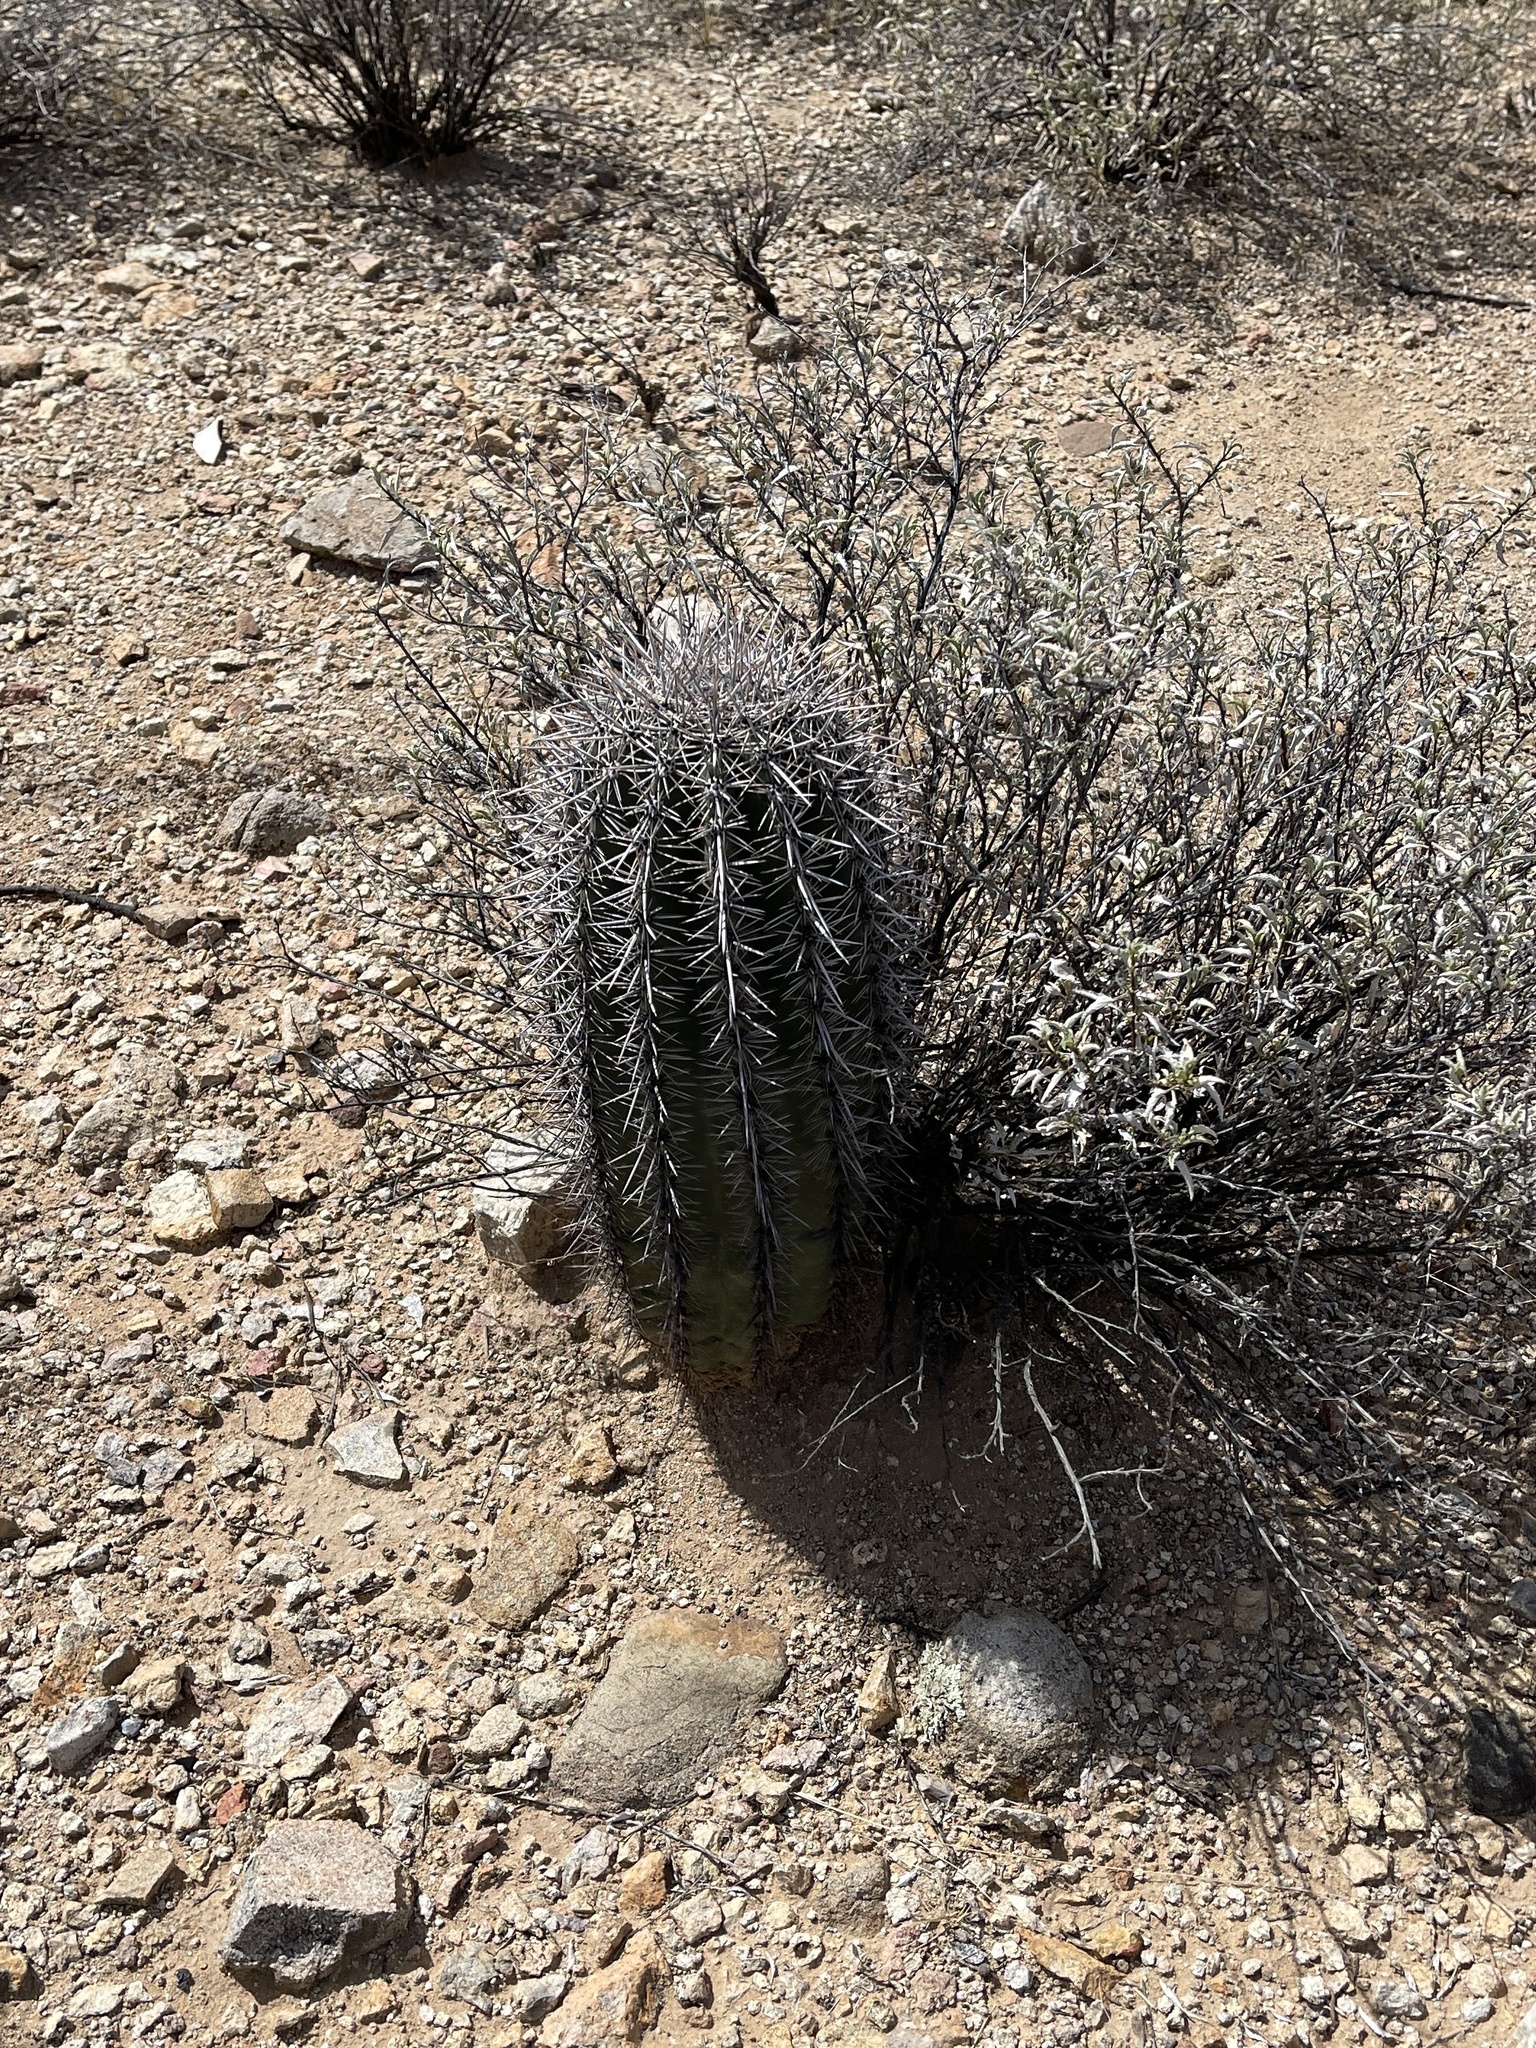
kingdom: Plantae
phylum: Tracheophyta
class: Magnoliopsida
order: Caryophyllales
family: Cactaceae
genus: Carnegiea
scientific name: Carnegiea gigantea
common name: Saguaro
